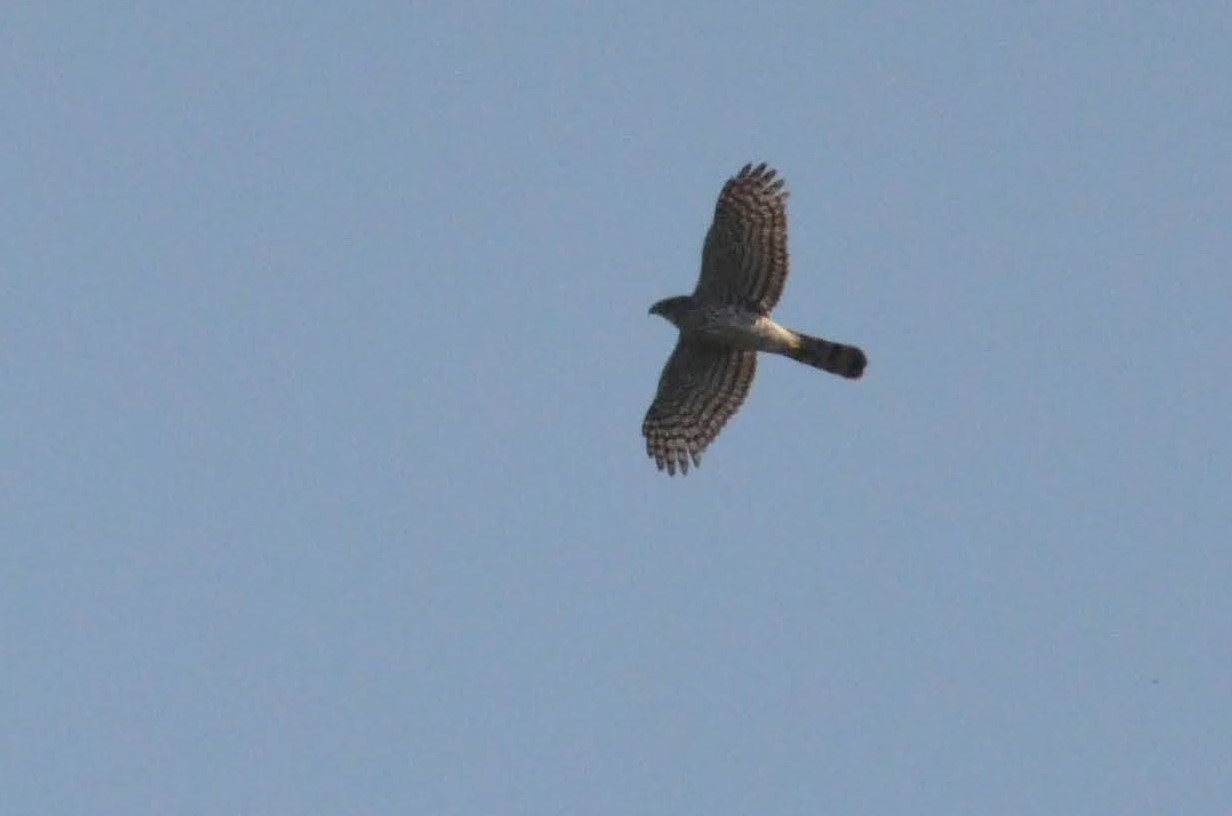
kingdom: Animalia
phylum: Chordata
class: Aves
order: Accipitriformes
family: Accipitridae
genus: Accipiter
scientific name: Accipiter cooperii
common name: Cooper's hawk
